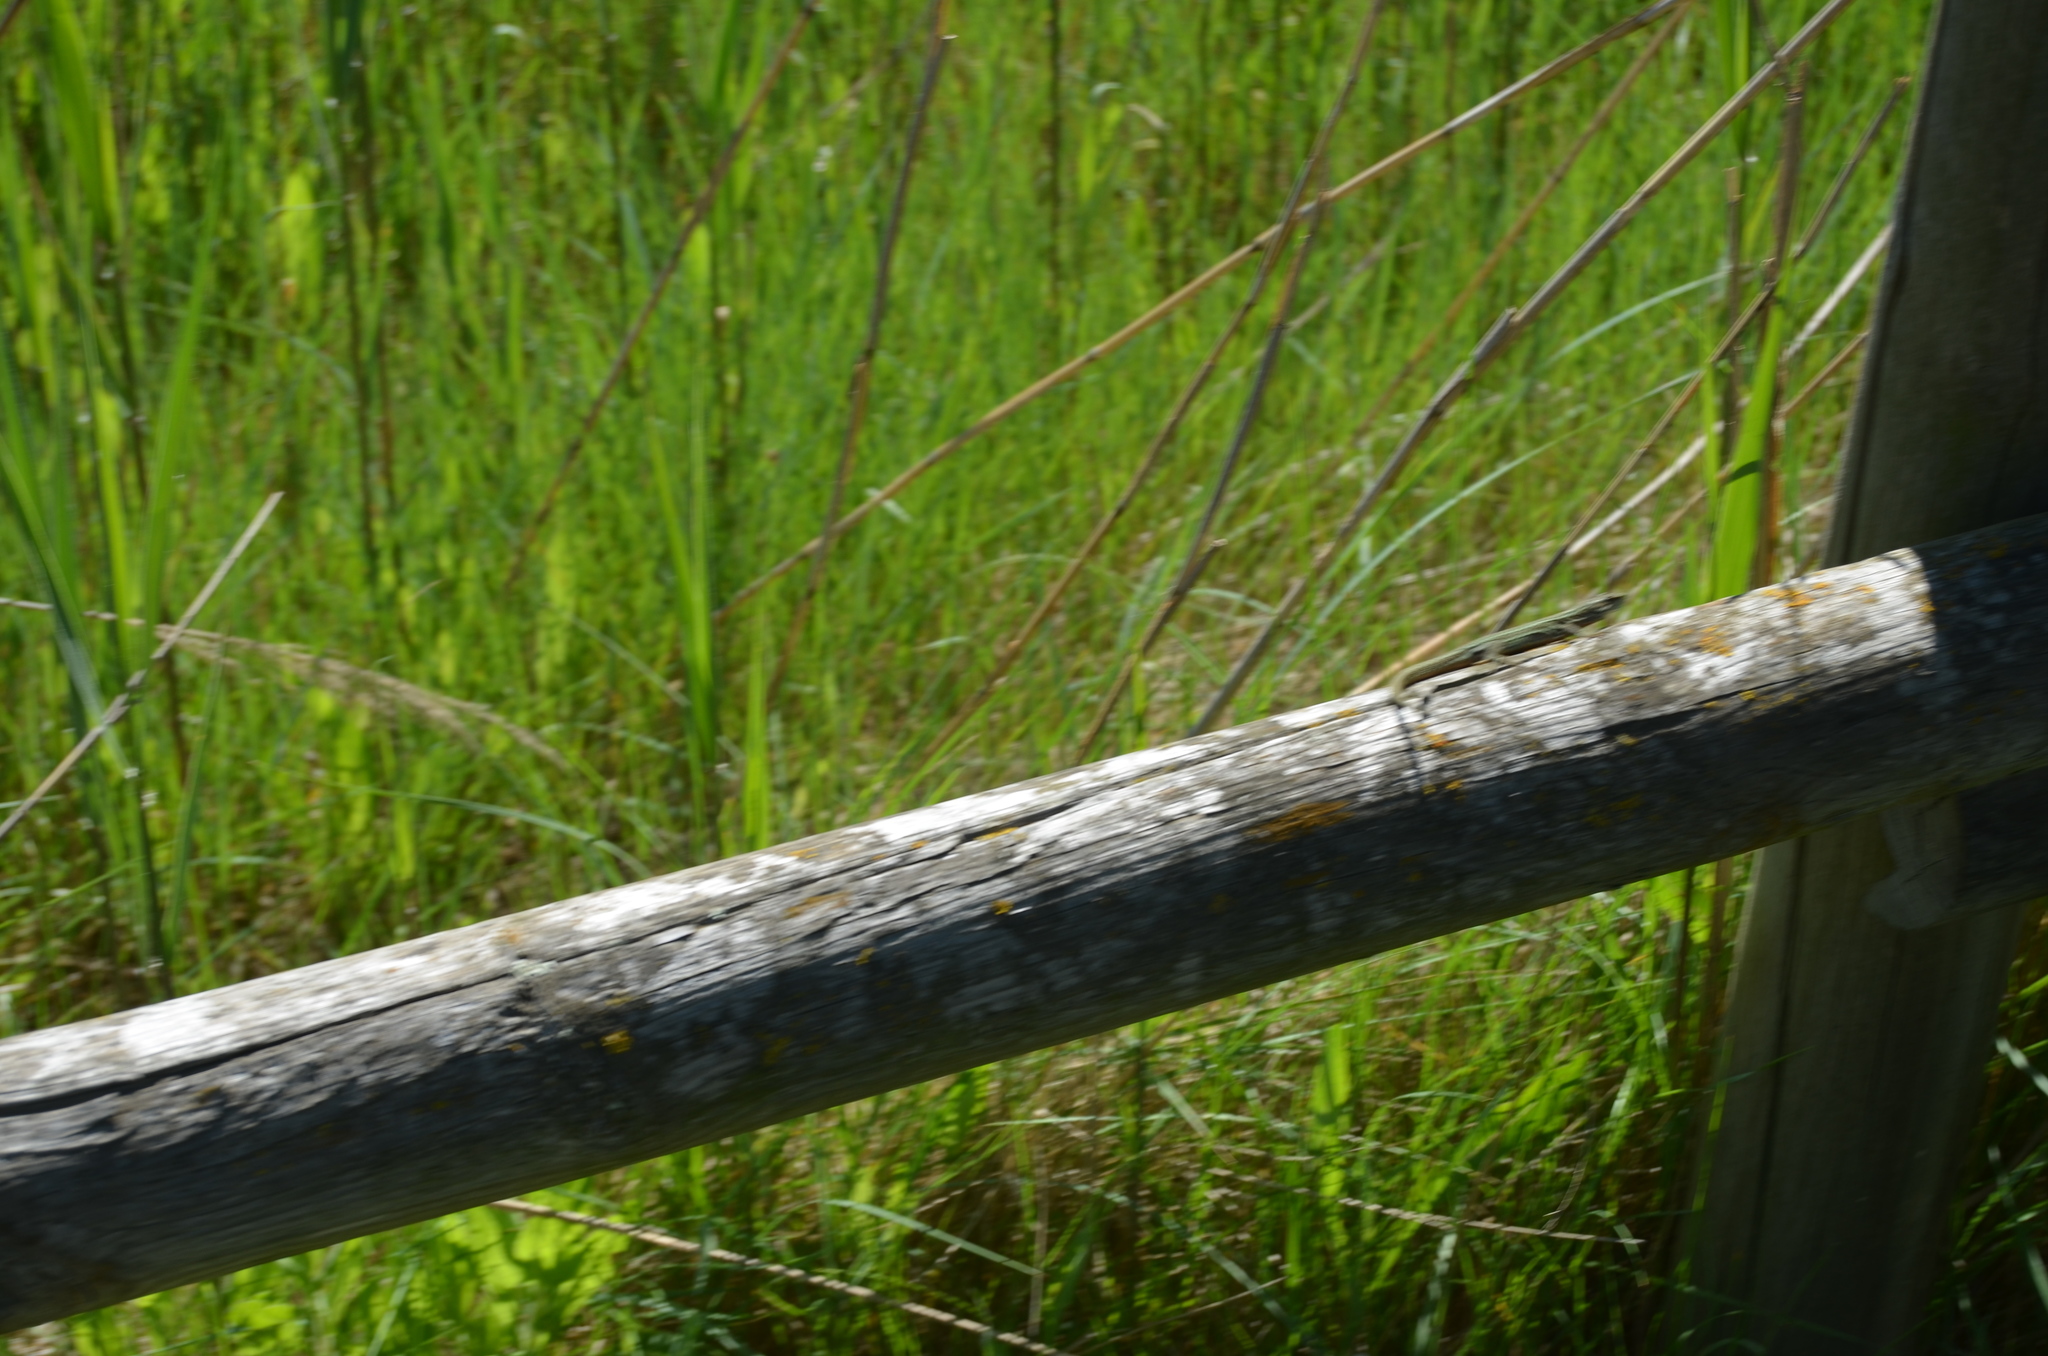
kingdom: Animalia
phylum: Chordata
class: Squamata
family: Lacertidae
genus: Podarcis
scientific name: Podarcis liolepis
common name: Catalonian wall lizard
